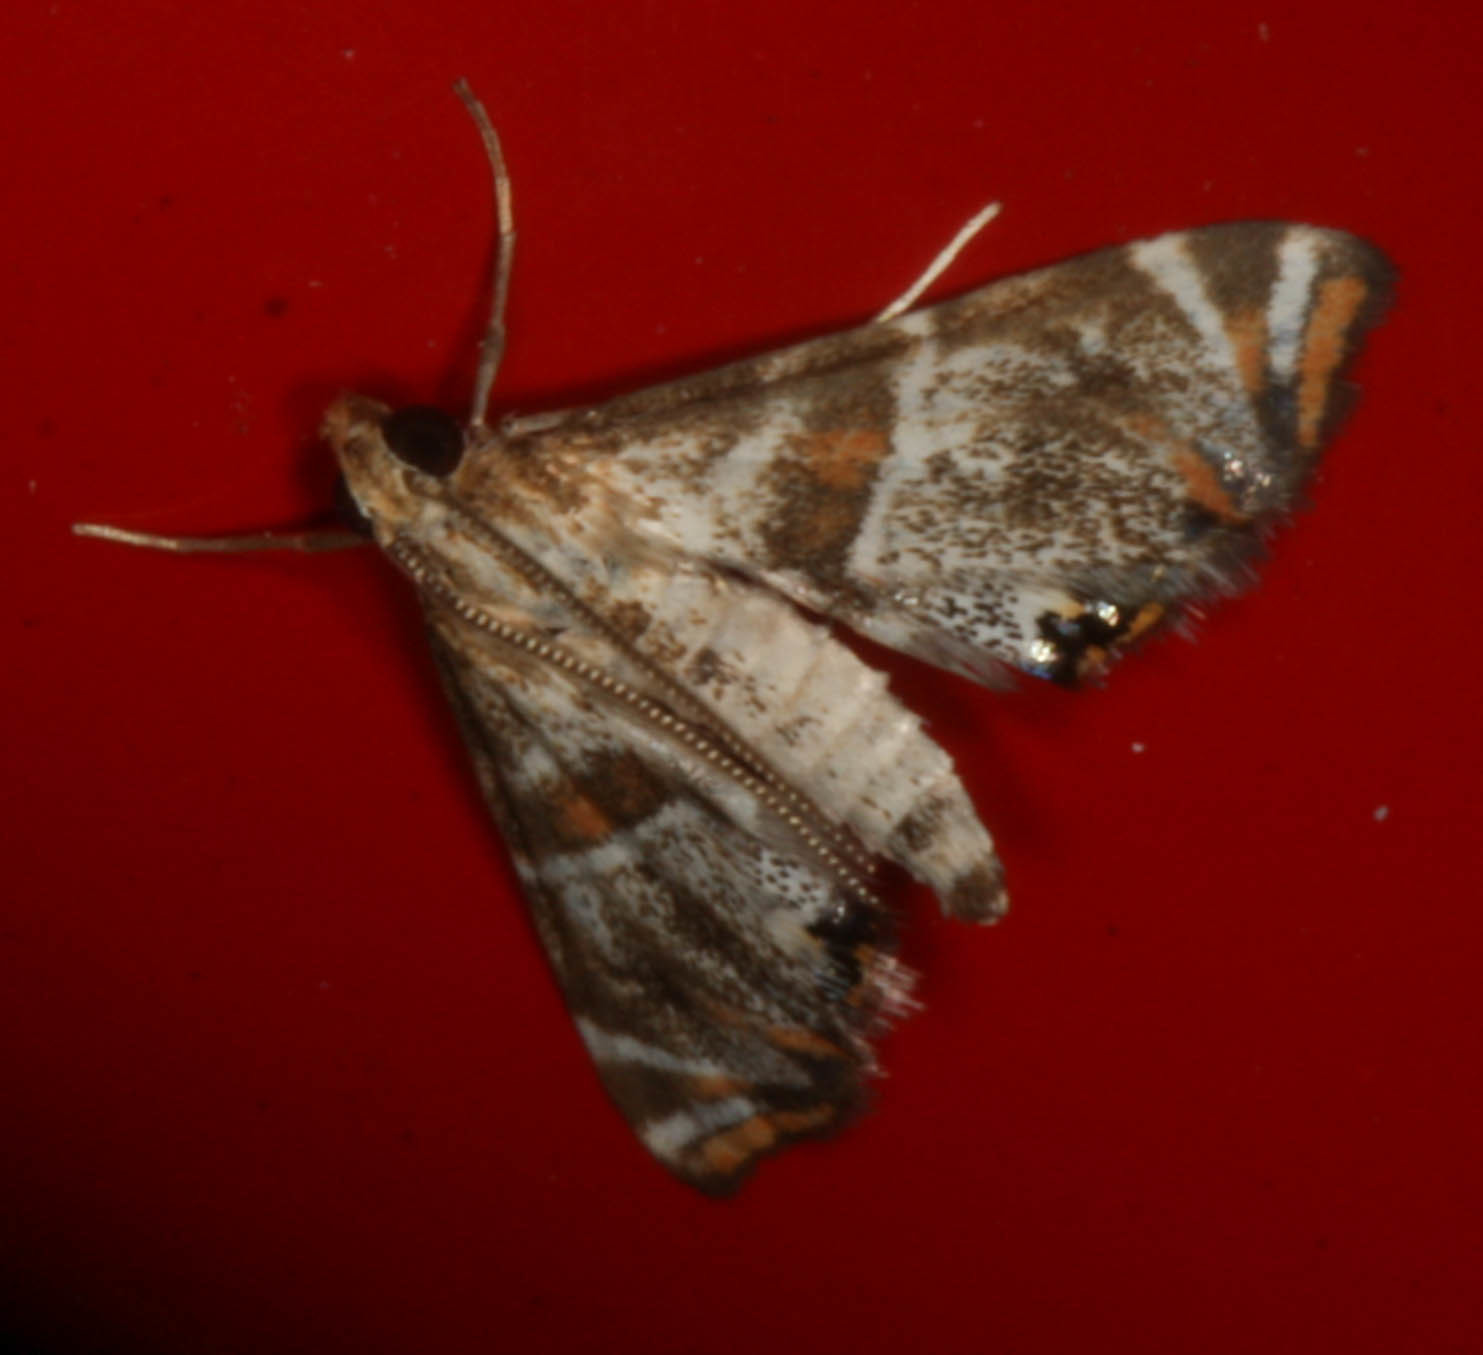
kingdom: Animalia
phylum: Arthropoda
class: Insecta
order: Lepidoptera
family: Crambidae
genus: Petrophila
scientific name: Petrophila jaliscalis
